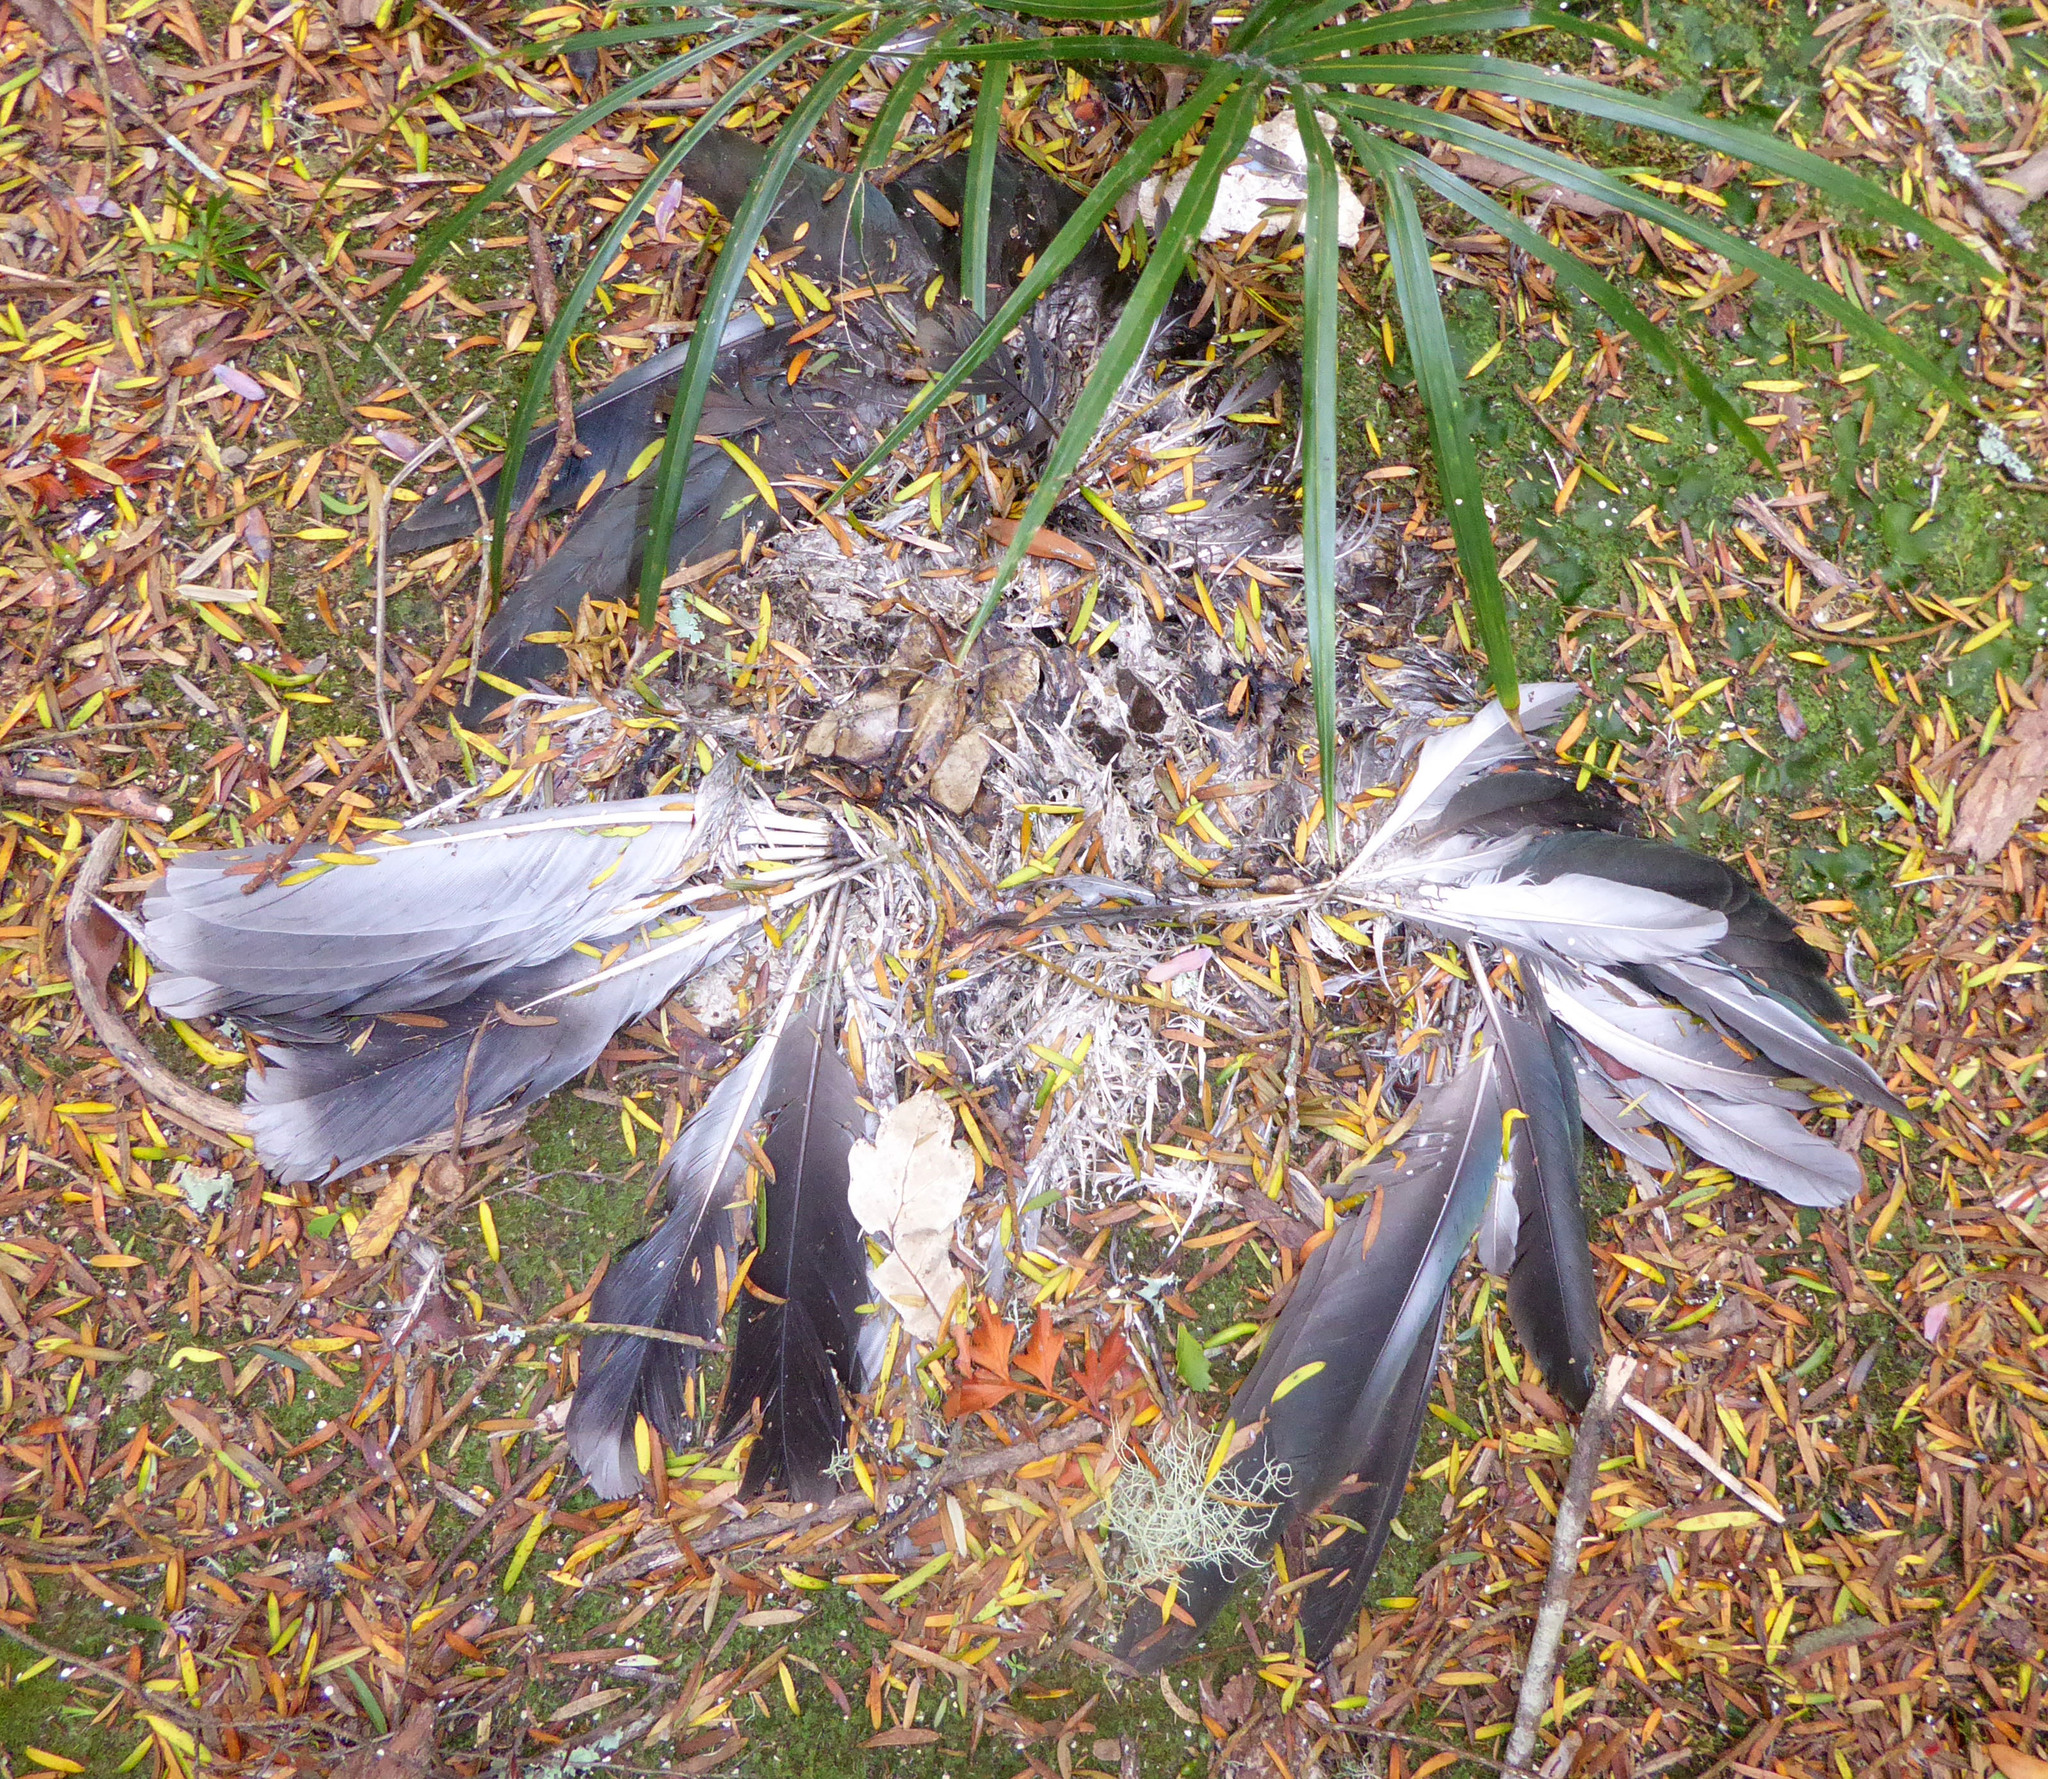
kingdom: Animalia
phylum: Chordata
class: Aves
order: Columbiformes
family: Columbidae
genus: Hemiphaga
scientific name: Hemiphaga novaeseelandiae
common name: New zealand pigeon
